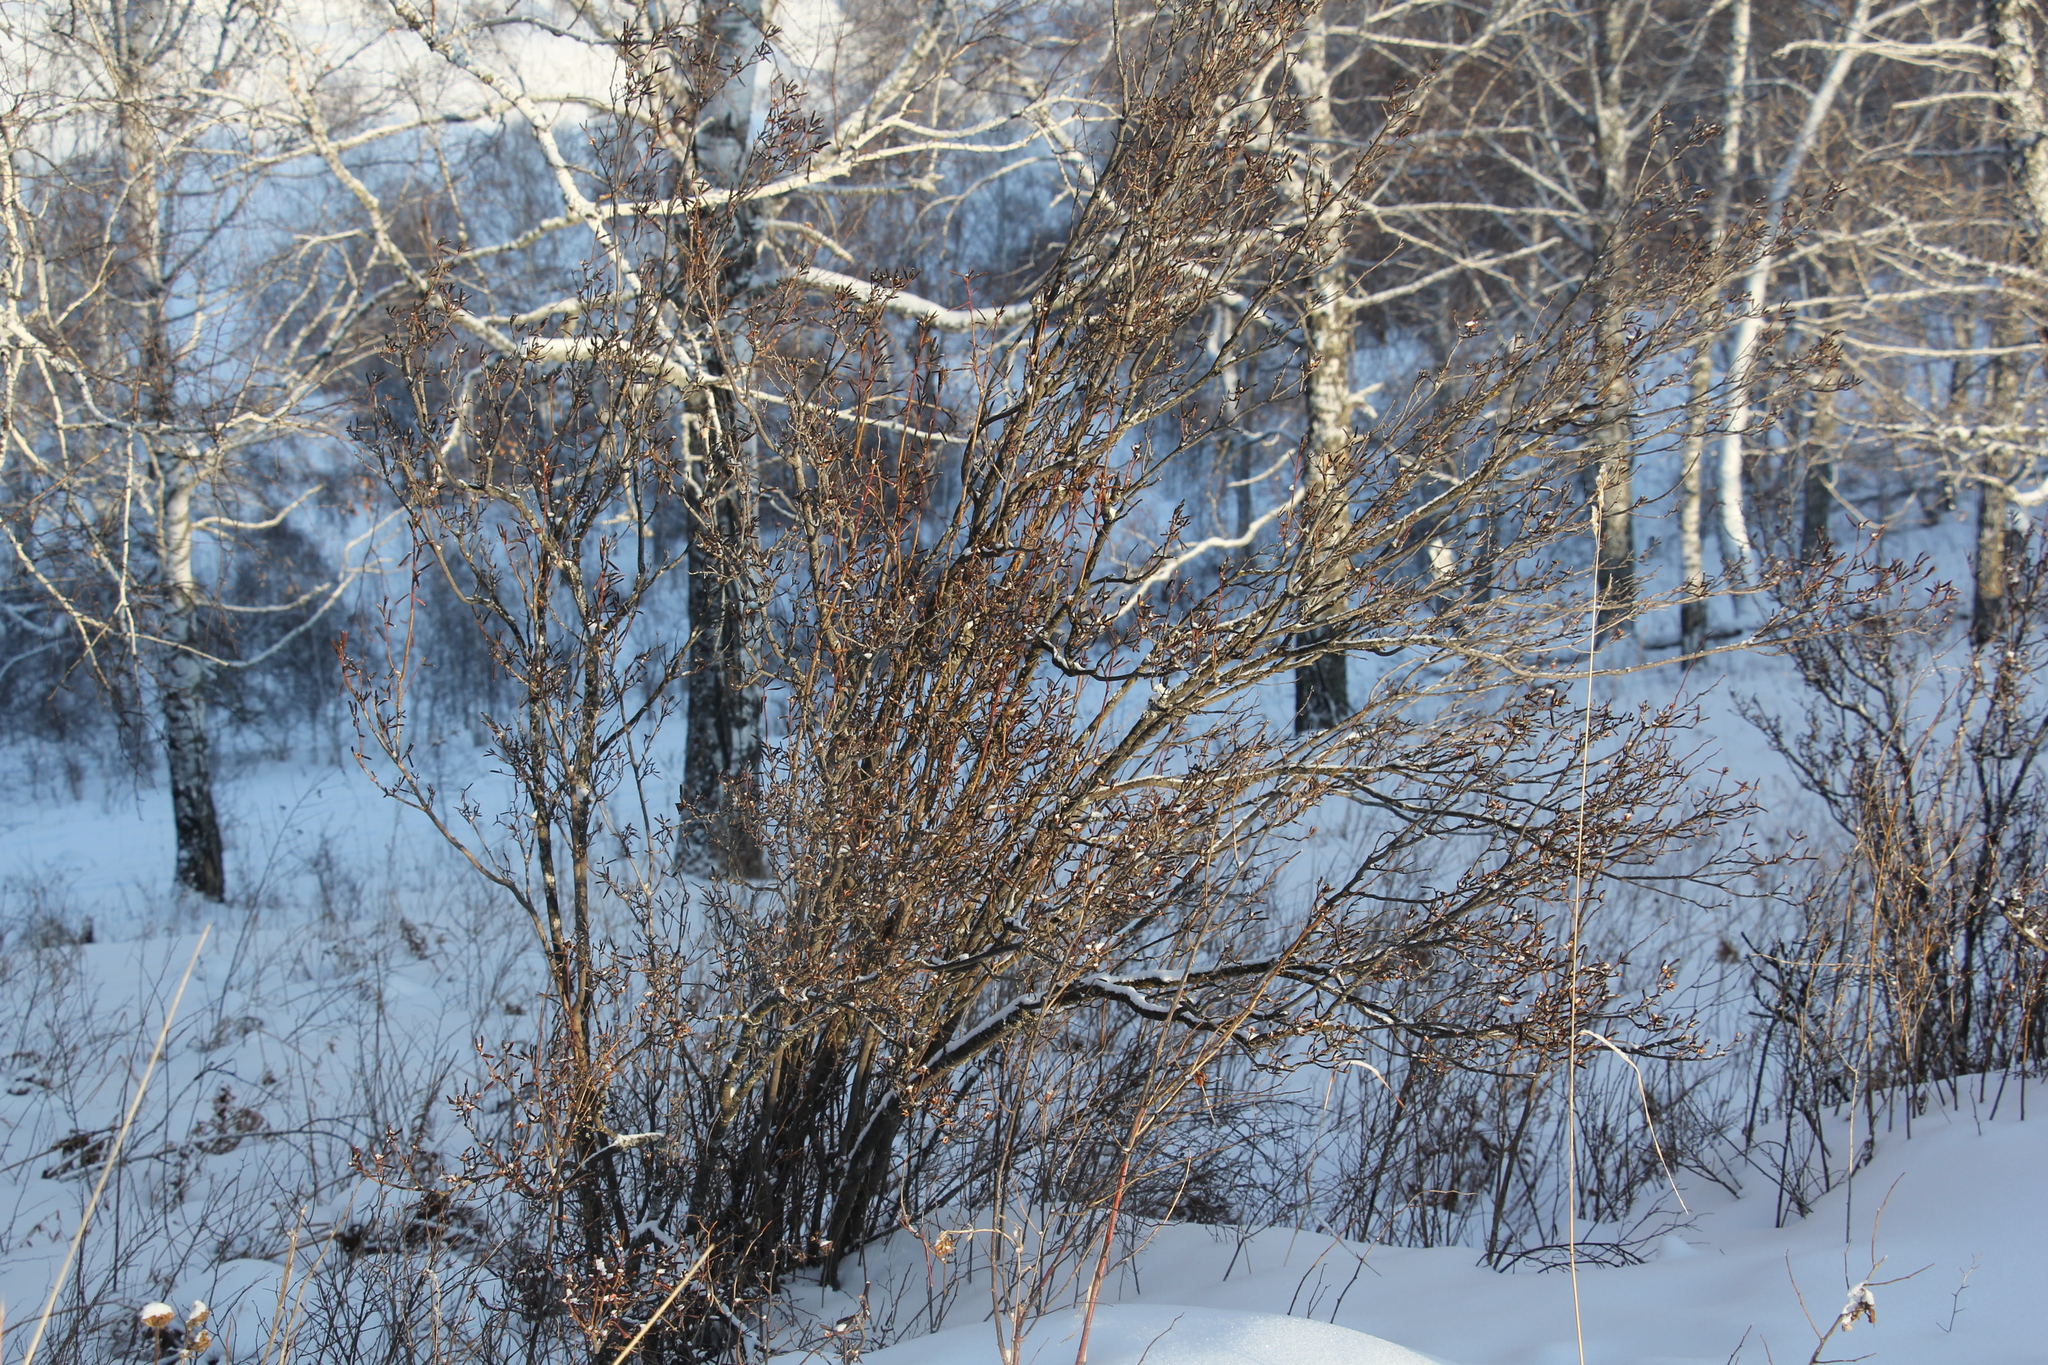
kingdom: Plantae
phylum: Tracheophyta
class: Magnoliopsida
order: Ericales
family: Ericaceae
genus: Rhododendron
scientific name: Rhododendron dauricum
